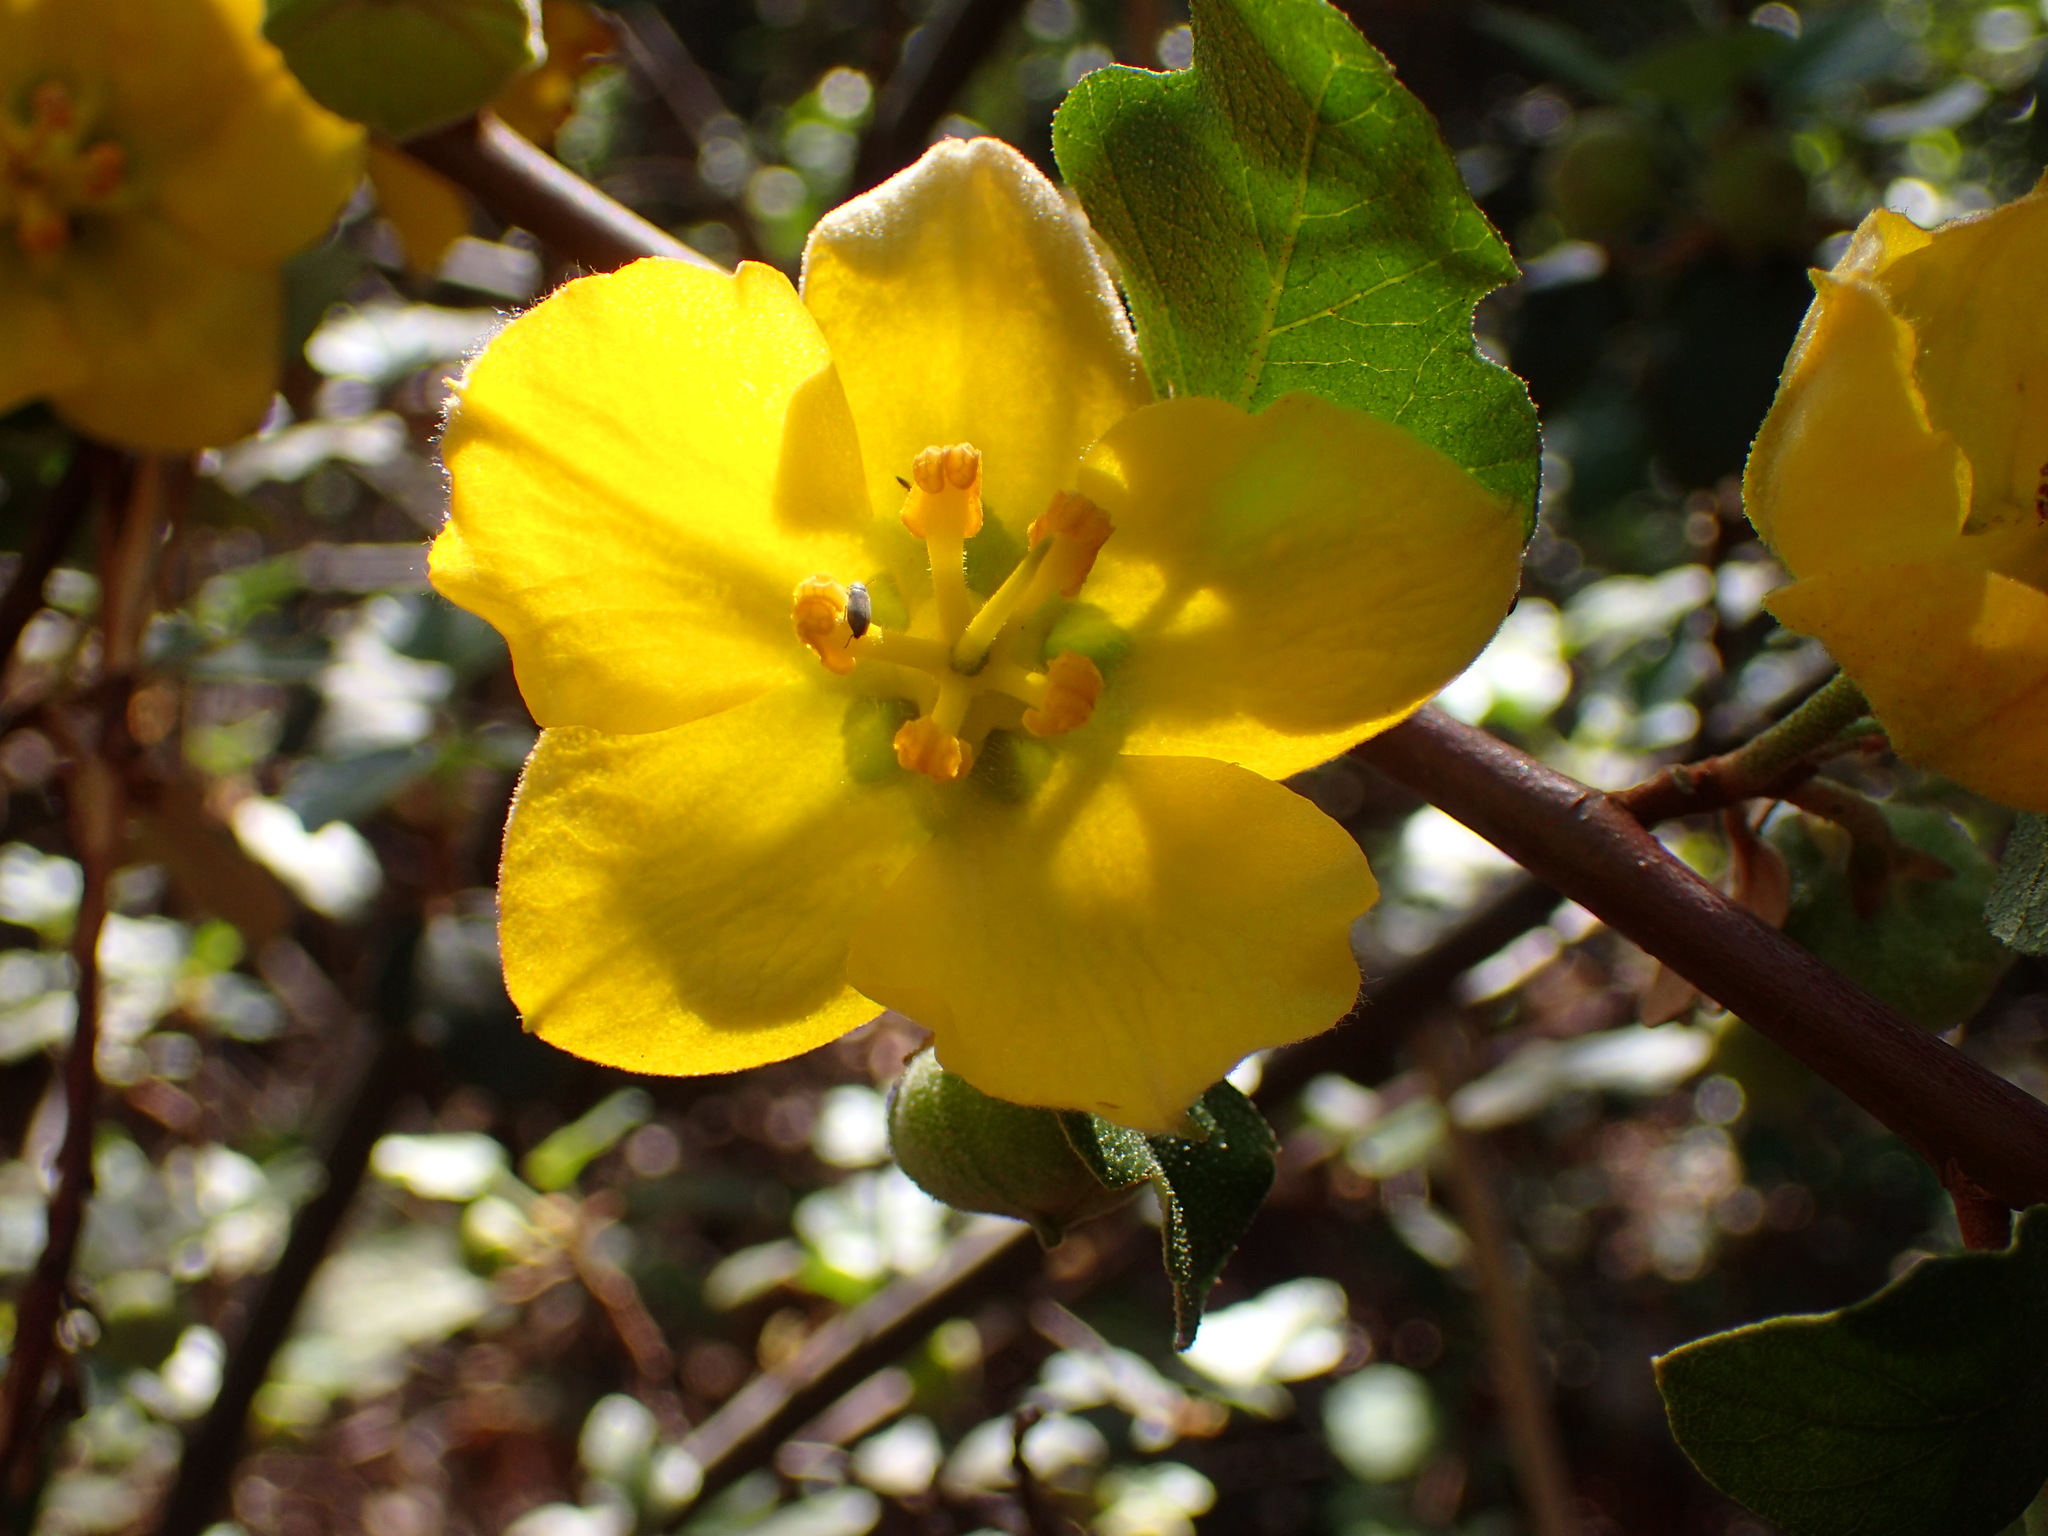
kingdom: Plantae
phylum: Tracheophyta
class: Magnoliopsida
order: Malvales
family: Malvaceae
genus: Fremontodendron
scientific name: Fremontodendron californicum
